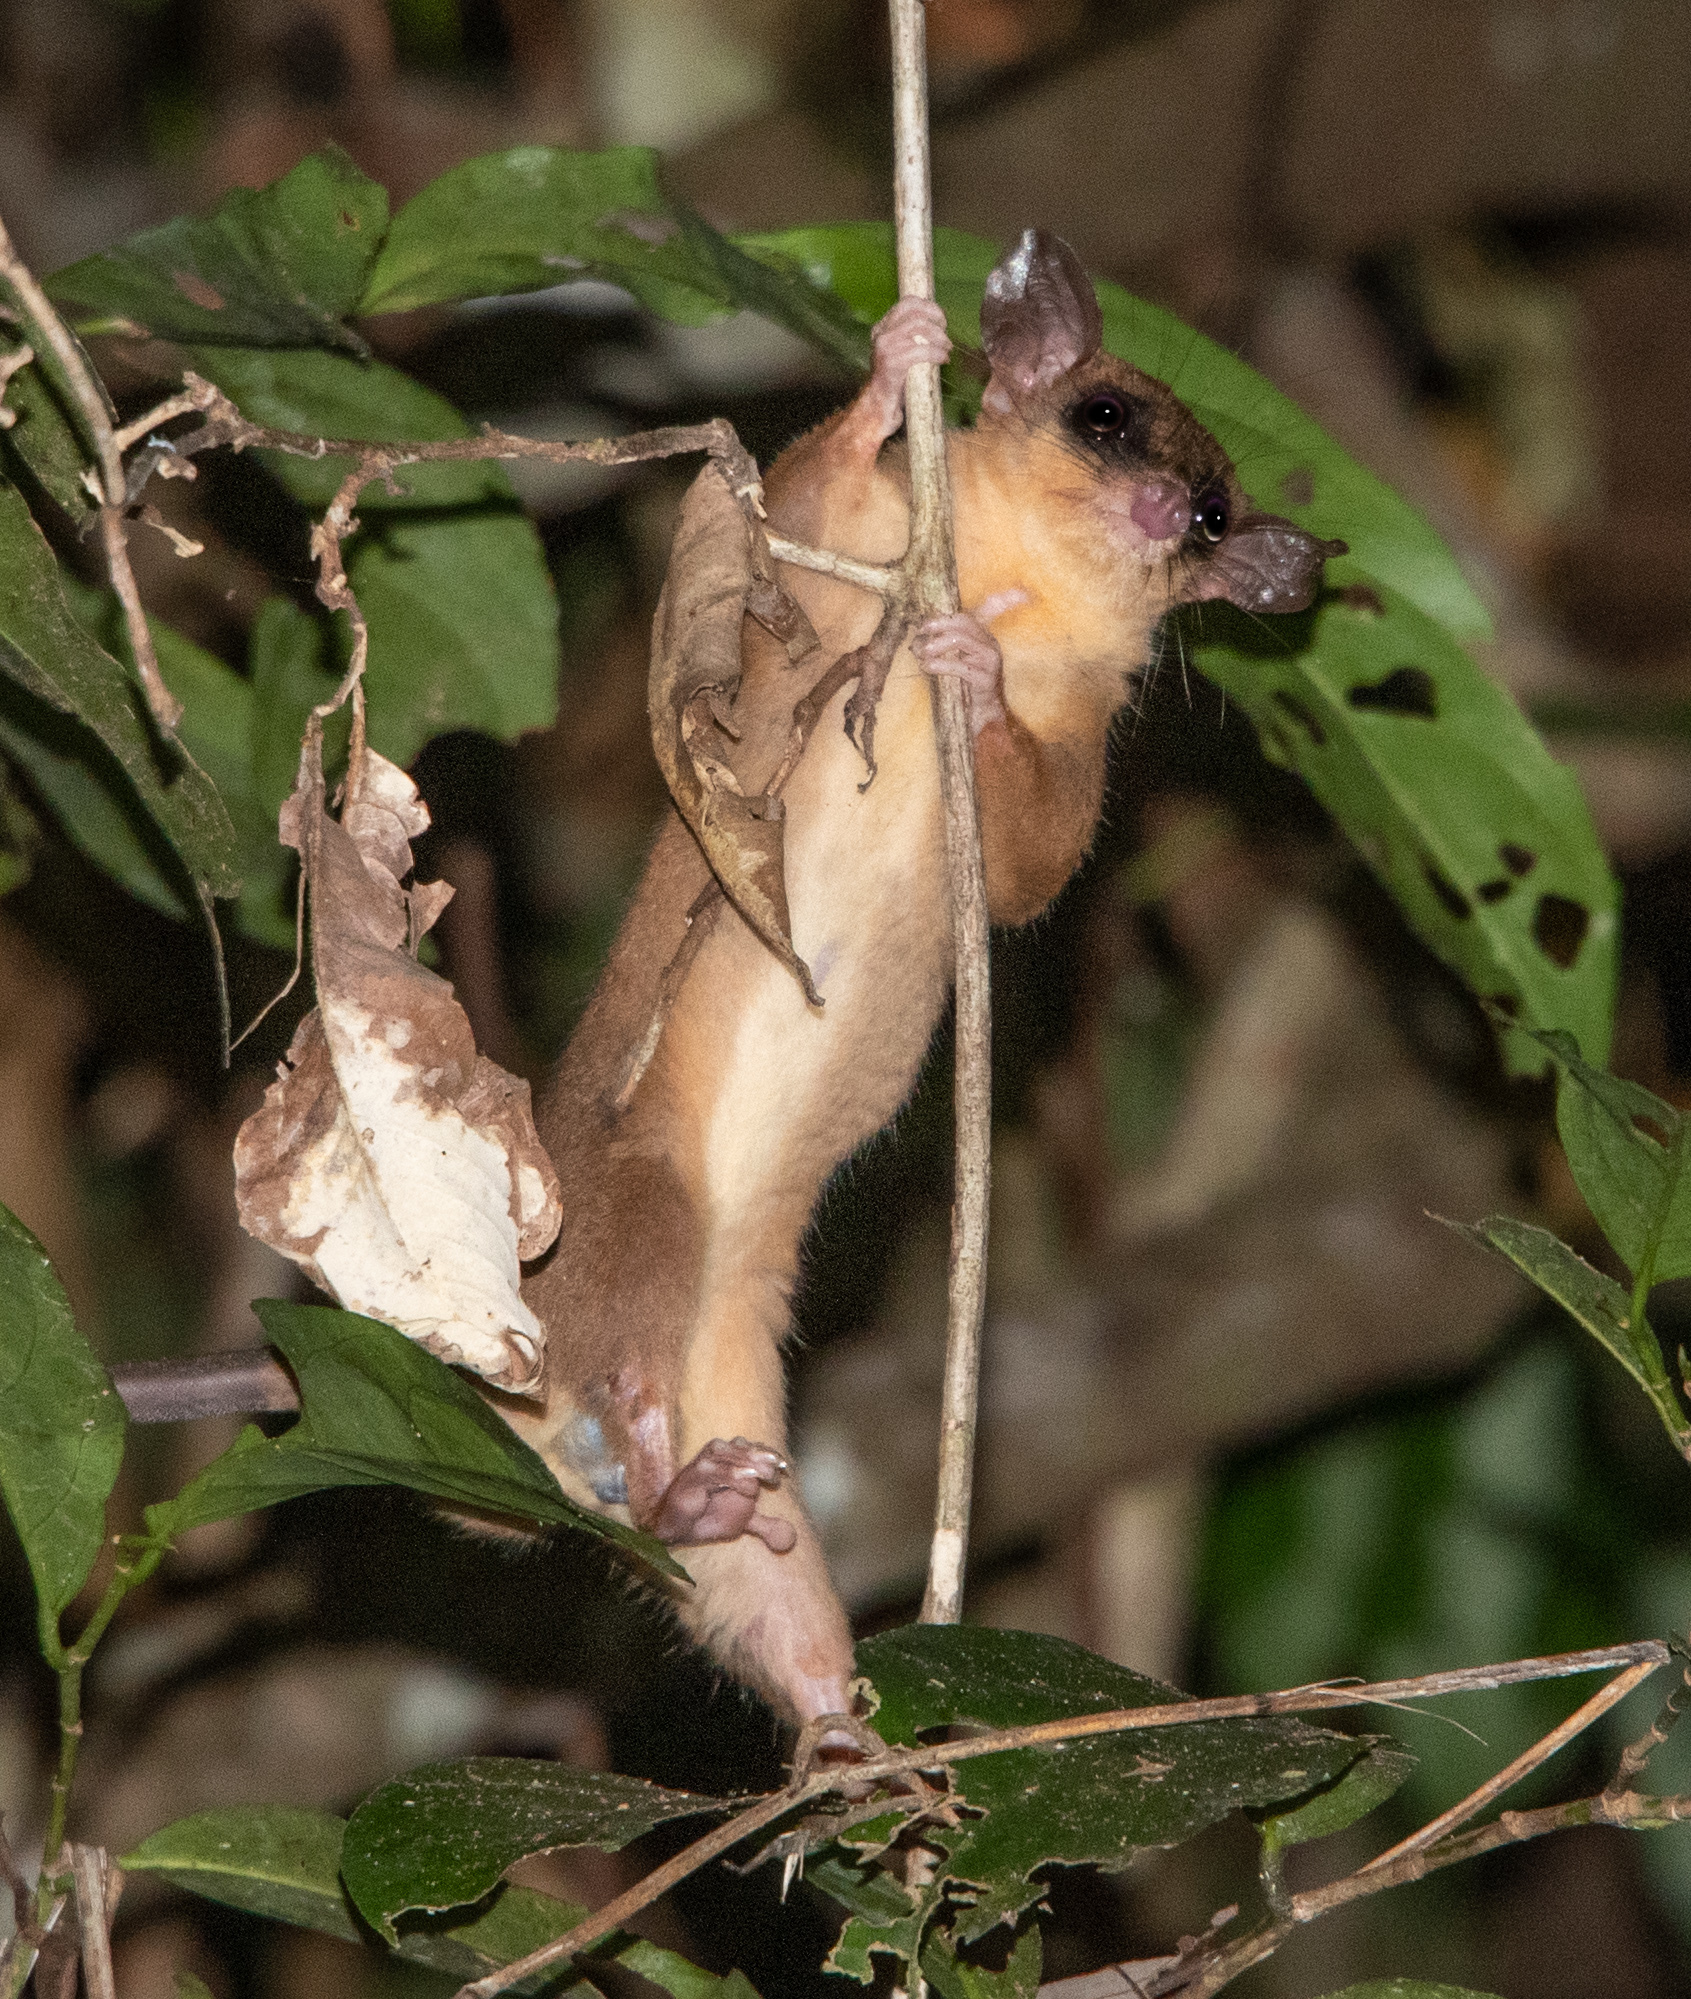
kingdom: Animalia
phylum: Chordata
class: Mammalia
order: Didelphimorphia
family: Didelphidae
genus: Marmosa
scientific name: Marmosa mexicana
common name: Mexican mouse opossum
